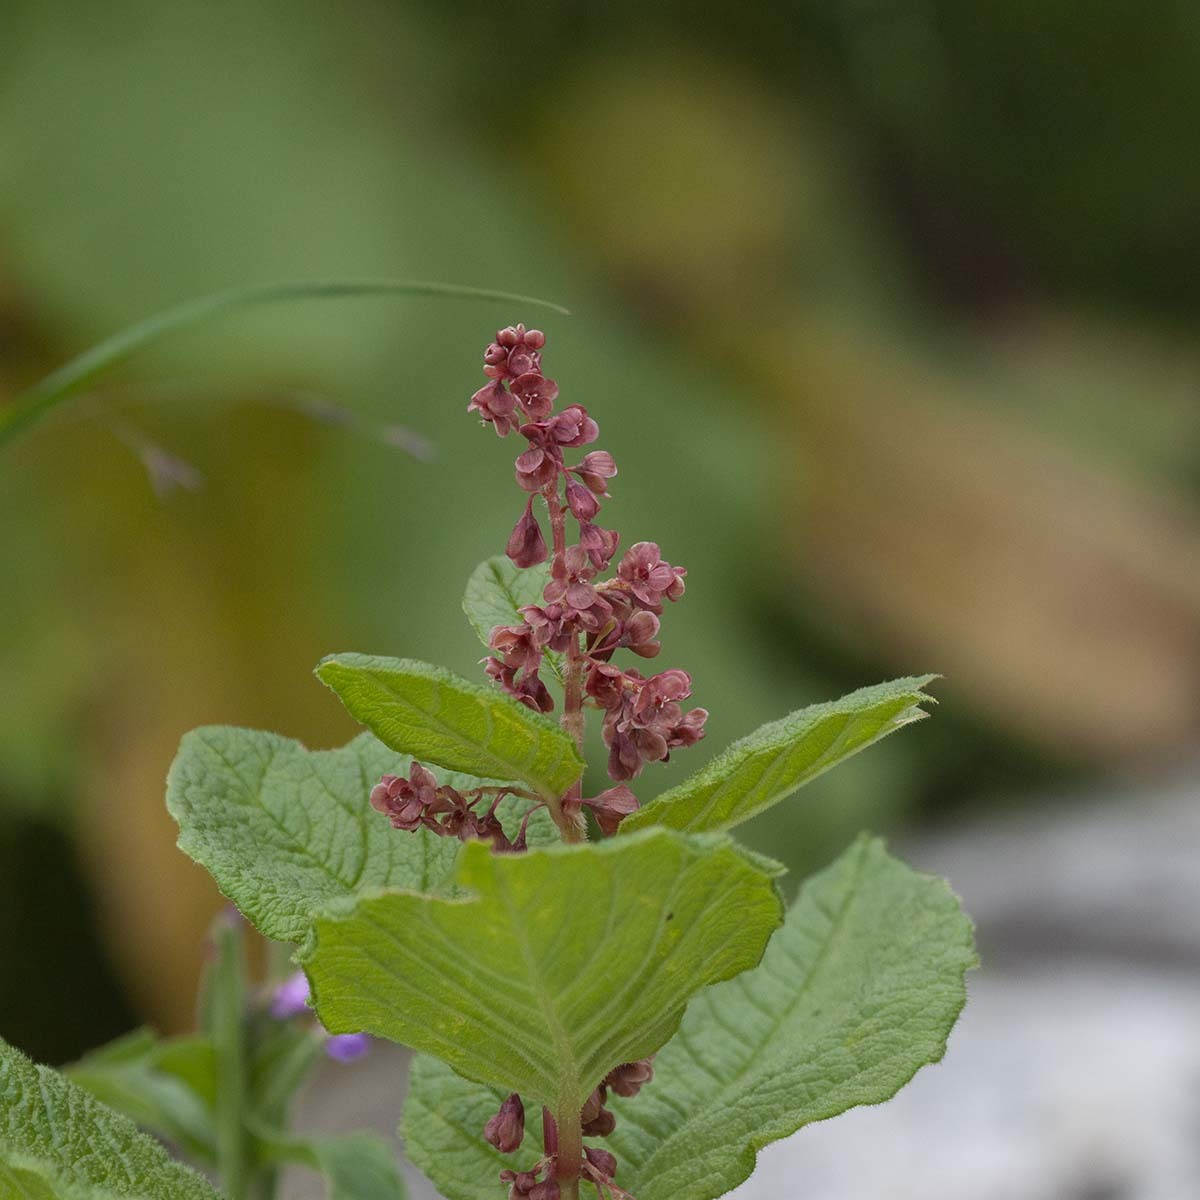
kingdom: Plantae
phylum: Tracheophyta
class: Magnoliopsida
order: Caryophyllales
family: Polygonaceae
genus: Koenigia
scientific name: Koenigia rumicifolia
